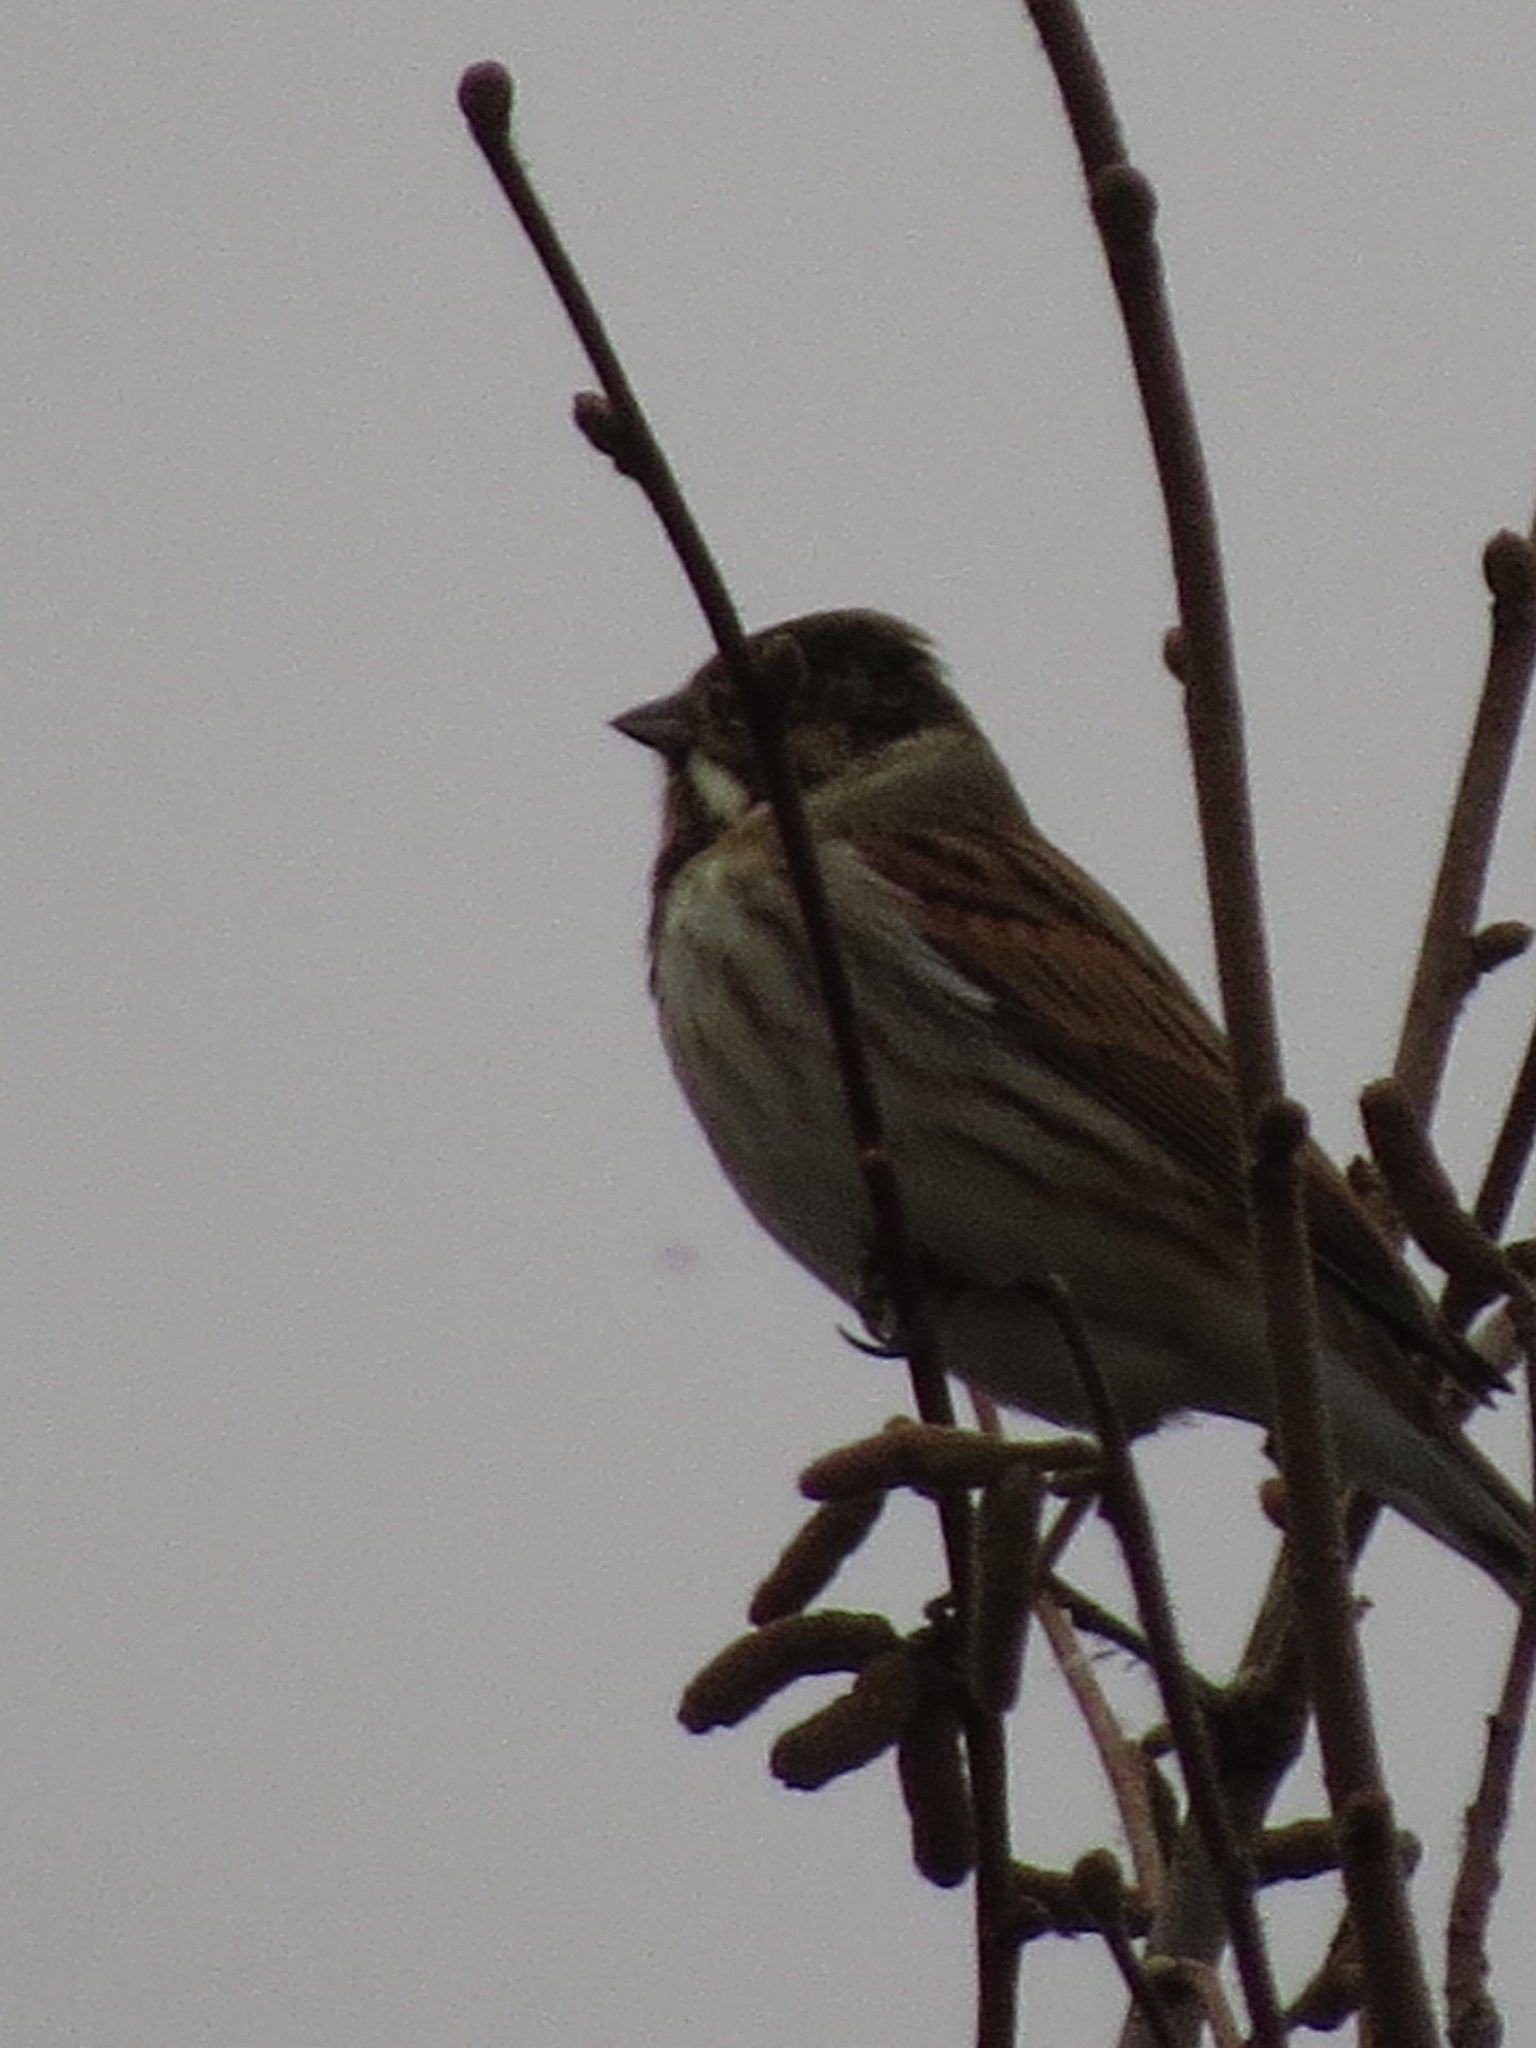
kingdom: Animalia
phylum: Chordata
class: Aves
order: Passeriformes
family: Emberizidae
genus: Emberiza
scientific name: Emberiza schoeniclus
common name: Reed bunting
